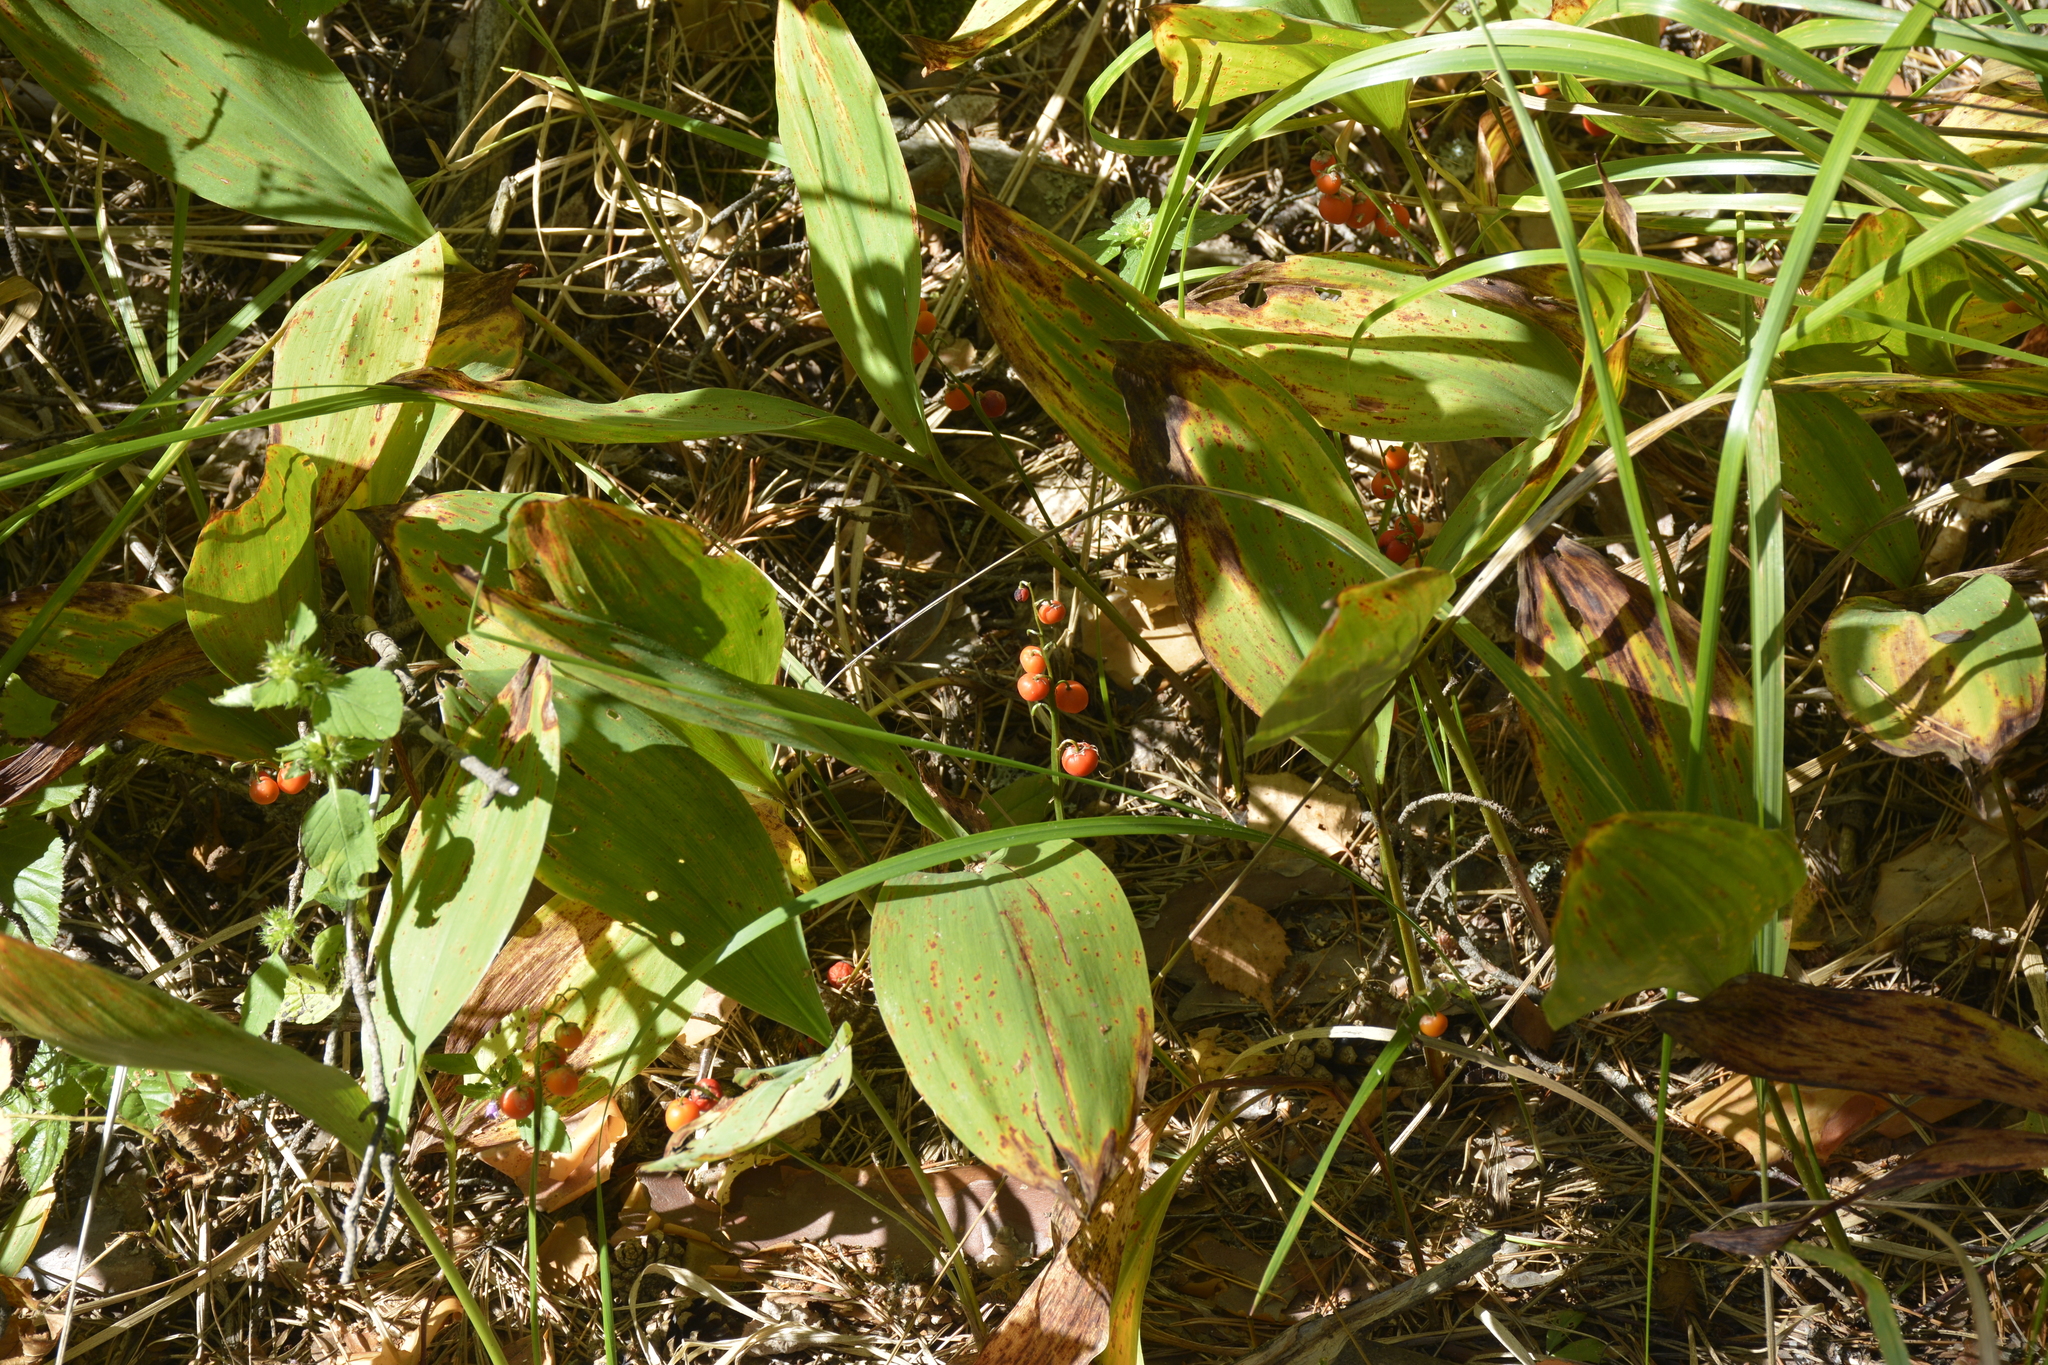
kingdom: Plantae
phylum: Tracheophyta
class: Liliopsida
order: Asparagales
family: Asparagaceae
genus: Convallaria
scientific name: Convallaria majalis
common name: Lily-of-the-valley
